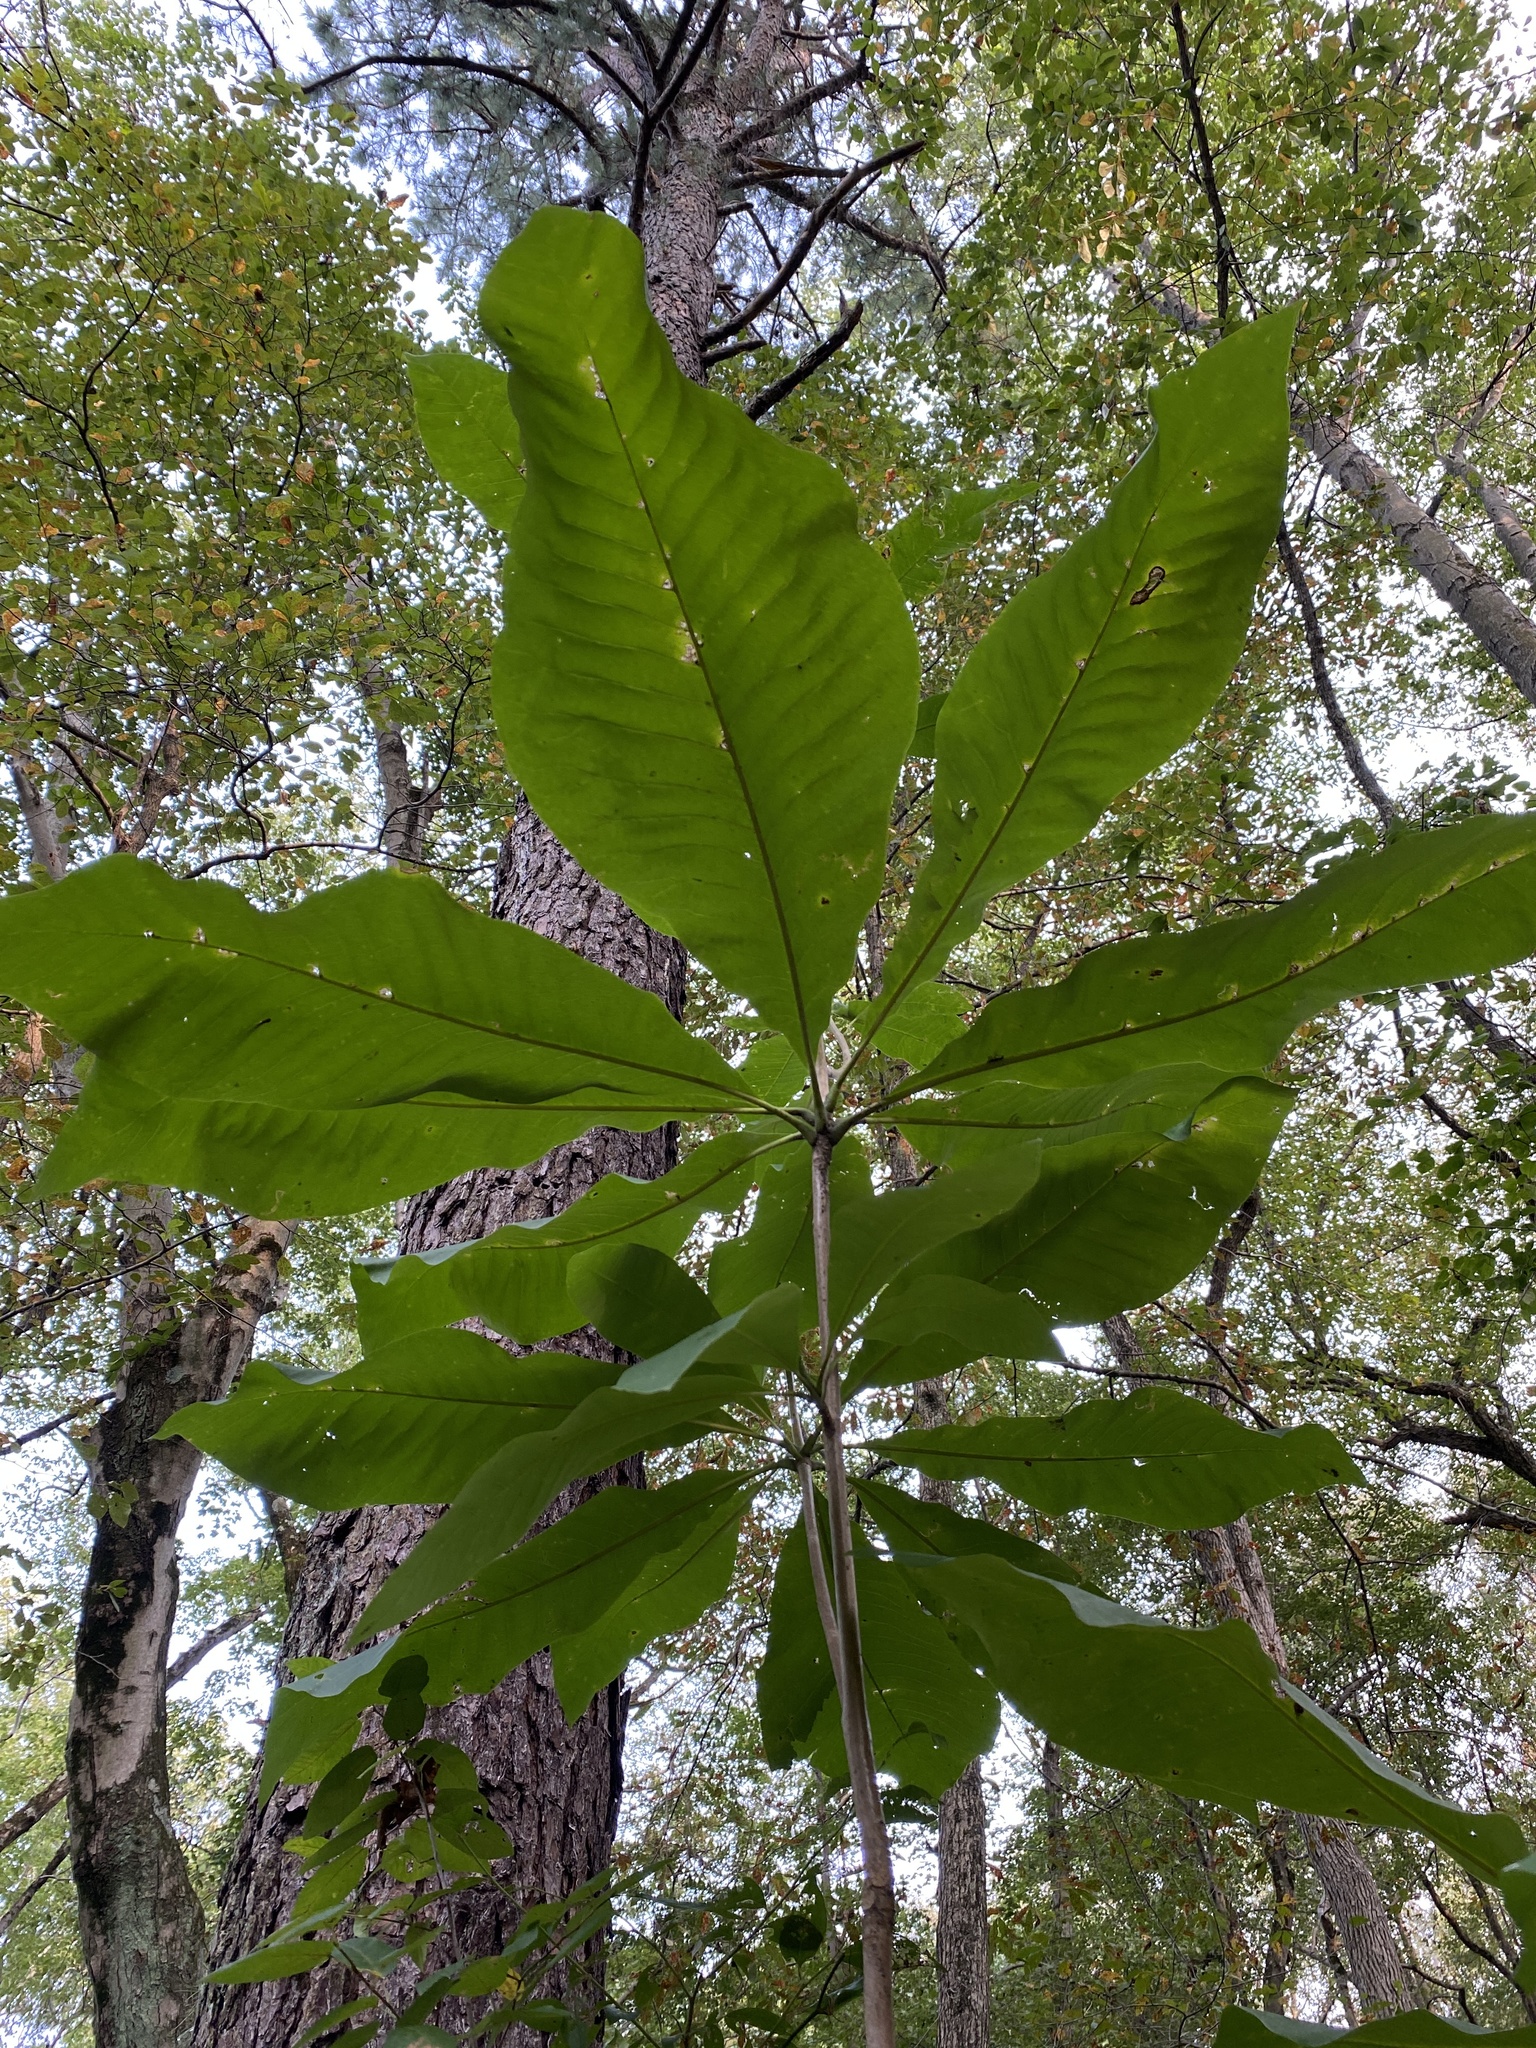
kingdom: Plantae
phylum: Tracheophyta
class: Magnoliopsida
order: Magnoliales
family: Magnoliaceae
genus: Magnolia
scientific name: Magnolia tripetala
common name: Umbrella magnolia
